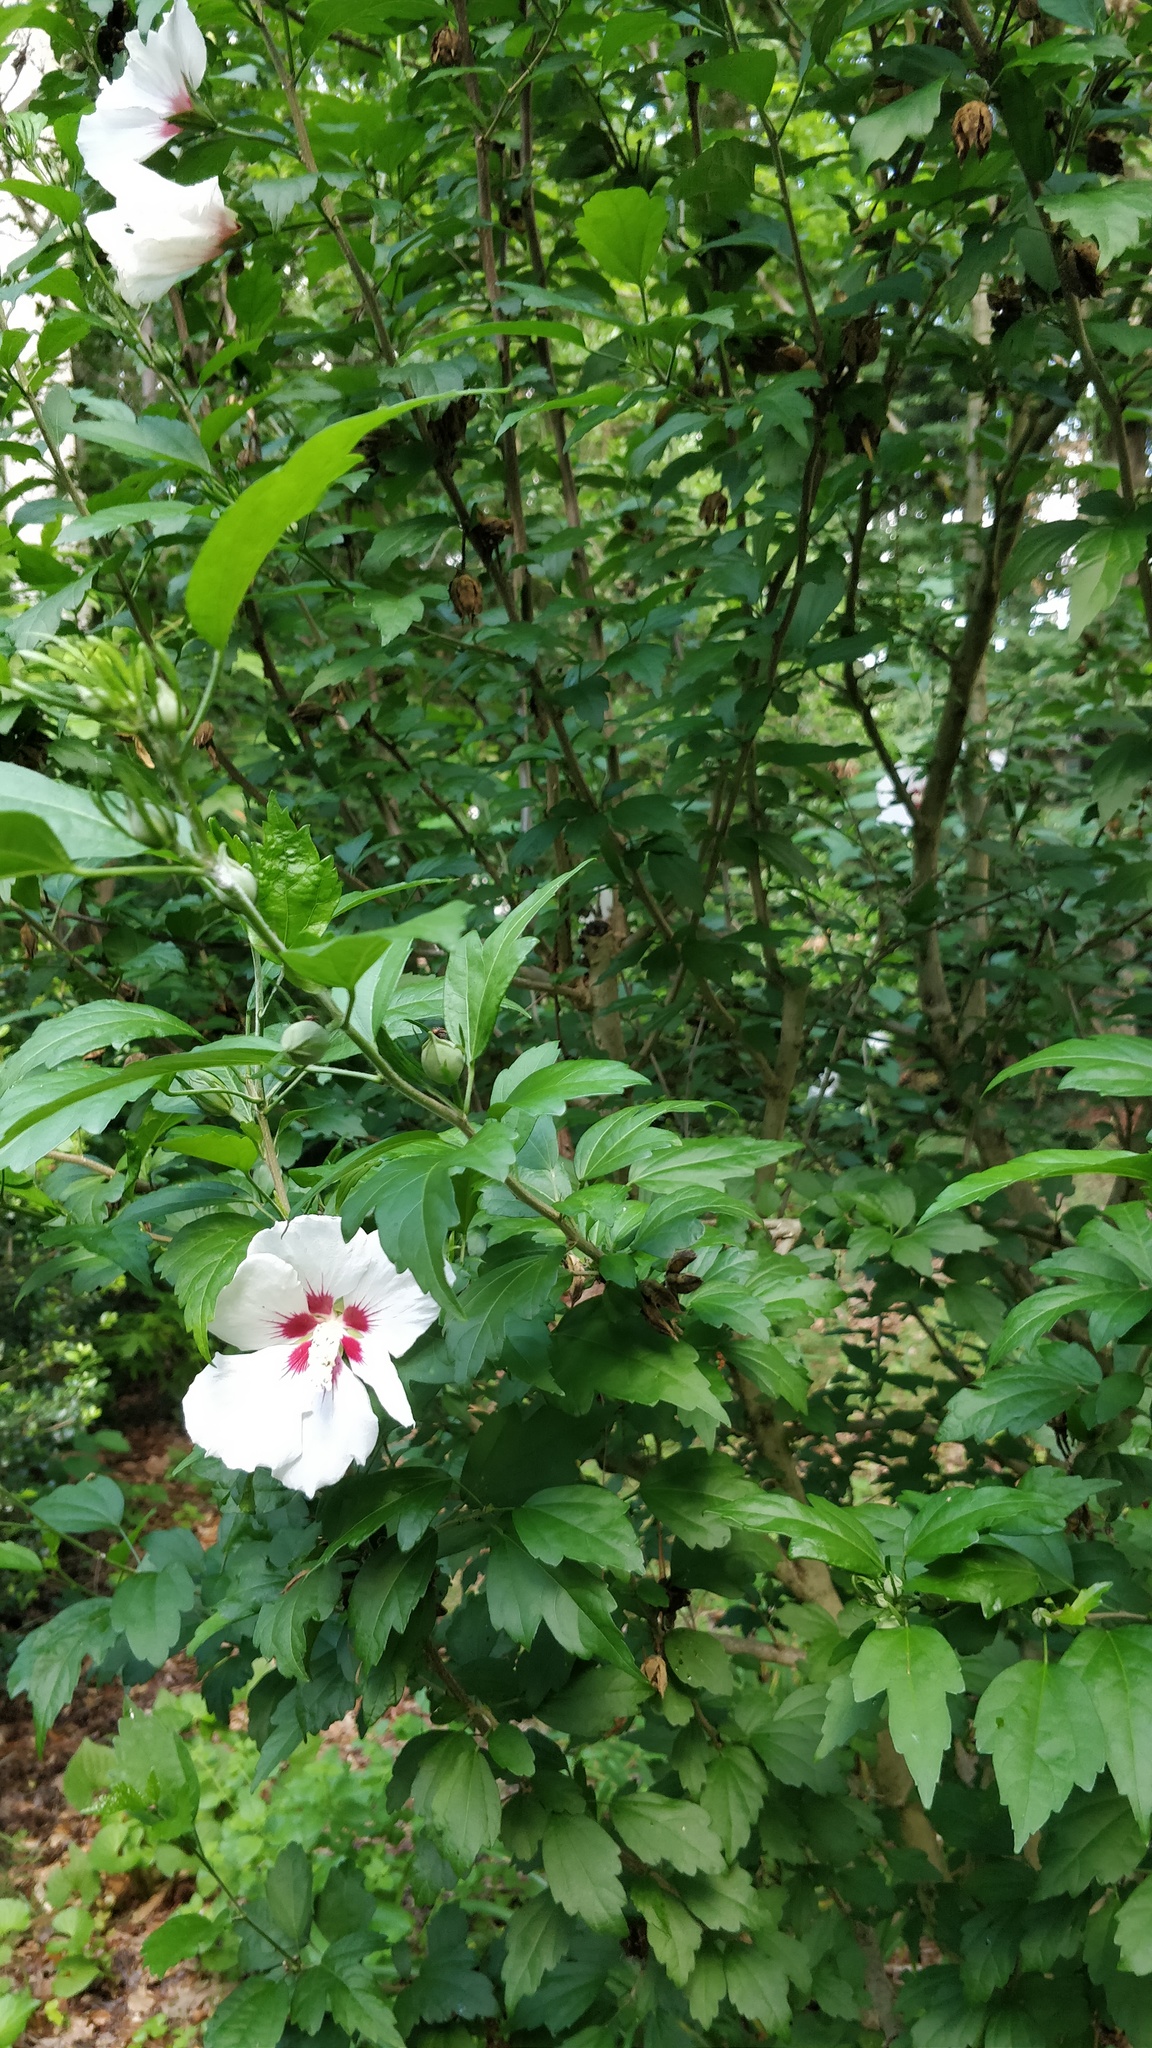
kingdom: Plantae
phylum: Tracheophyta
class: Magnoliopsida
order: Malvales
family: Malvaceae
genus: Hibiscus
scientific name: Hibiscus syriacus
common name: Syrian ketmia
